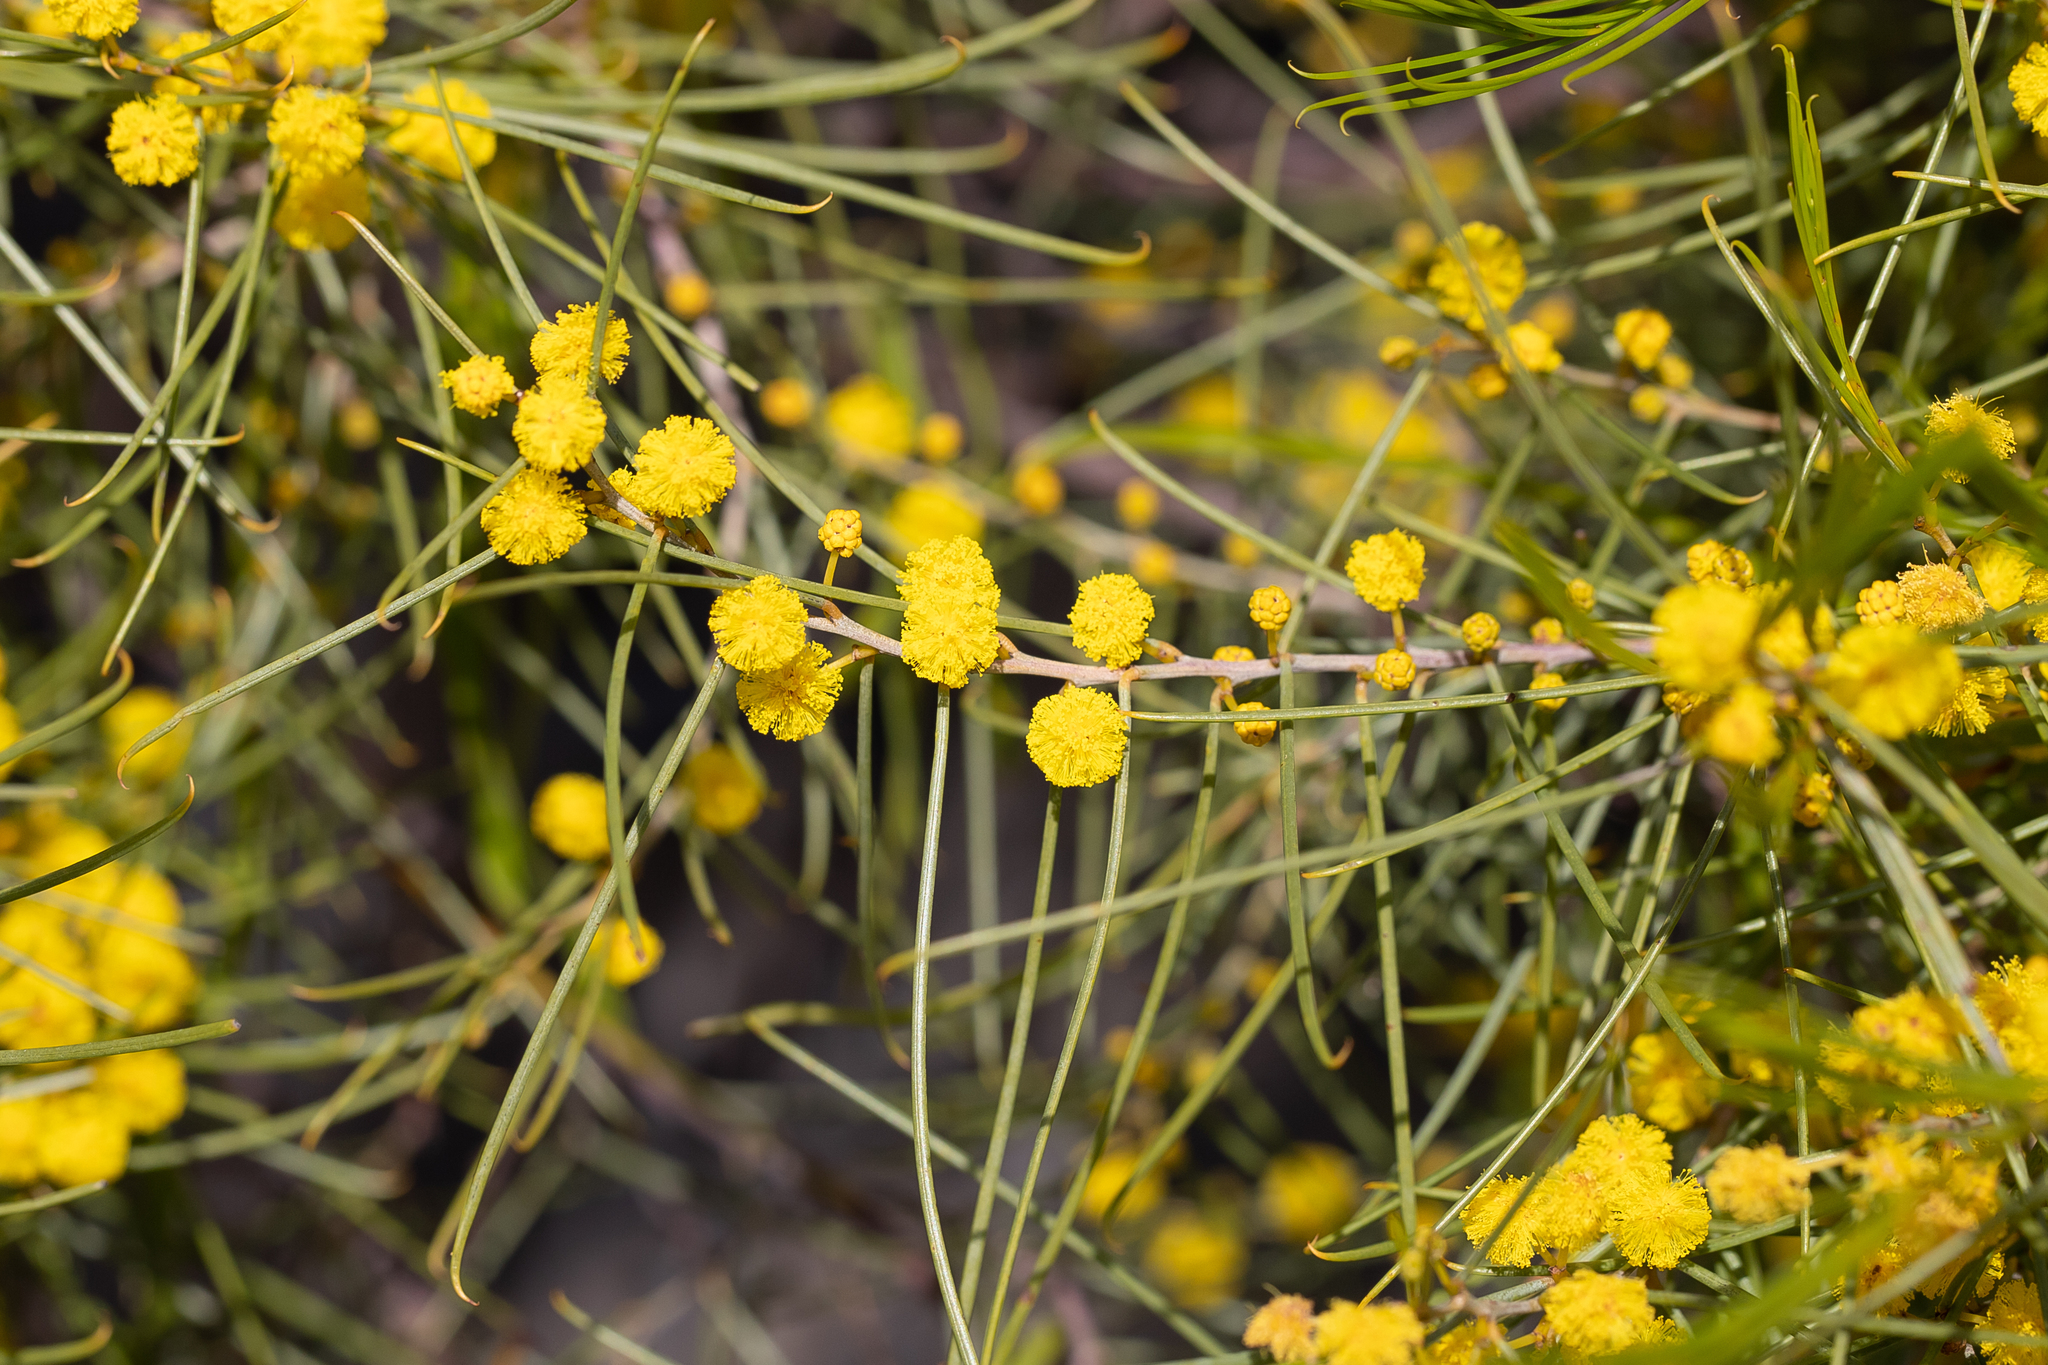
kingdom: Plantae
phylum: Tracheophyta
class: Magnoliopsida
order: Fabales
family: Fabaceae
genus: Acacia
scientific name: Acacia euthycarpa
